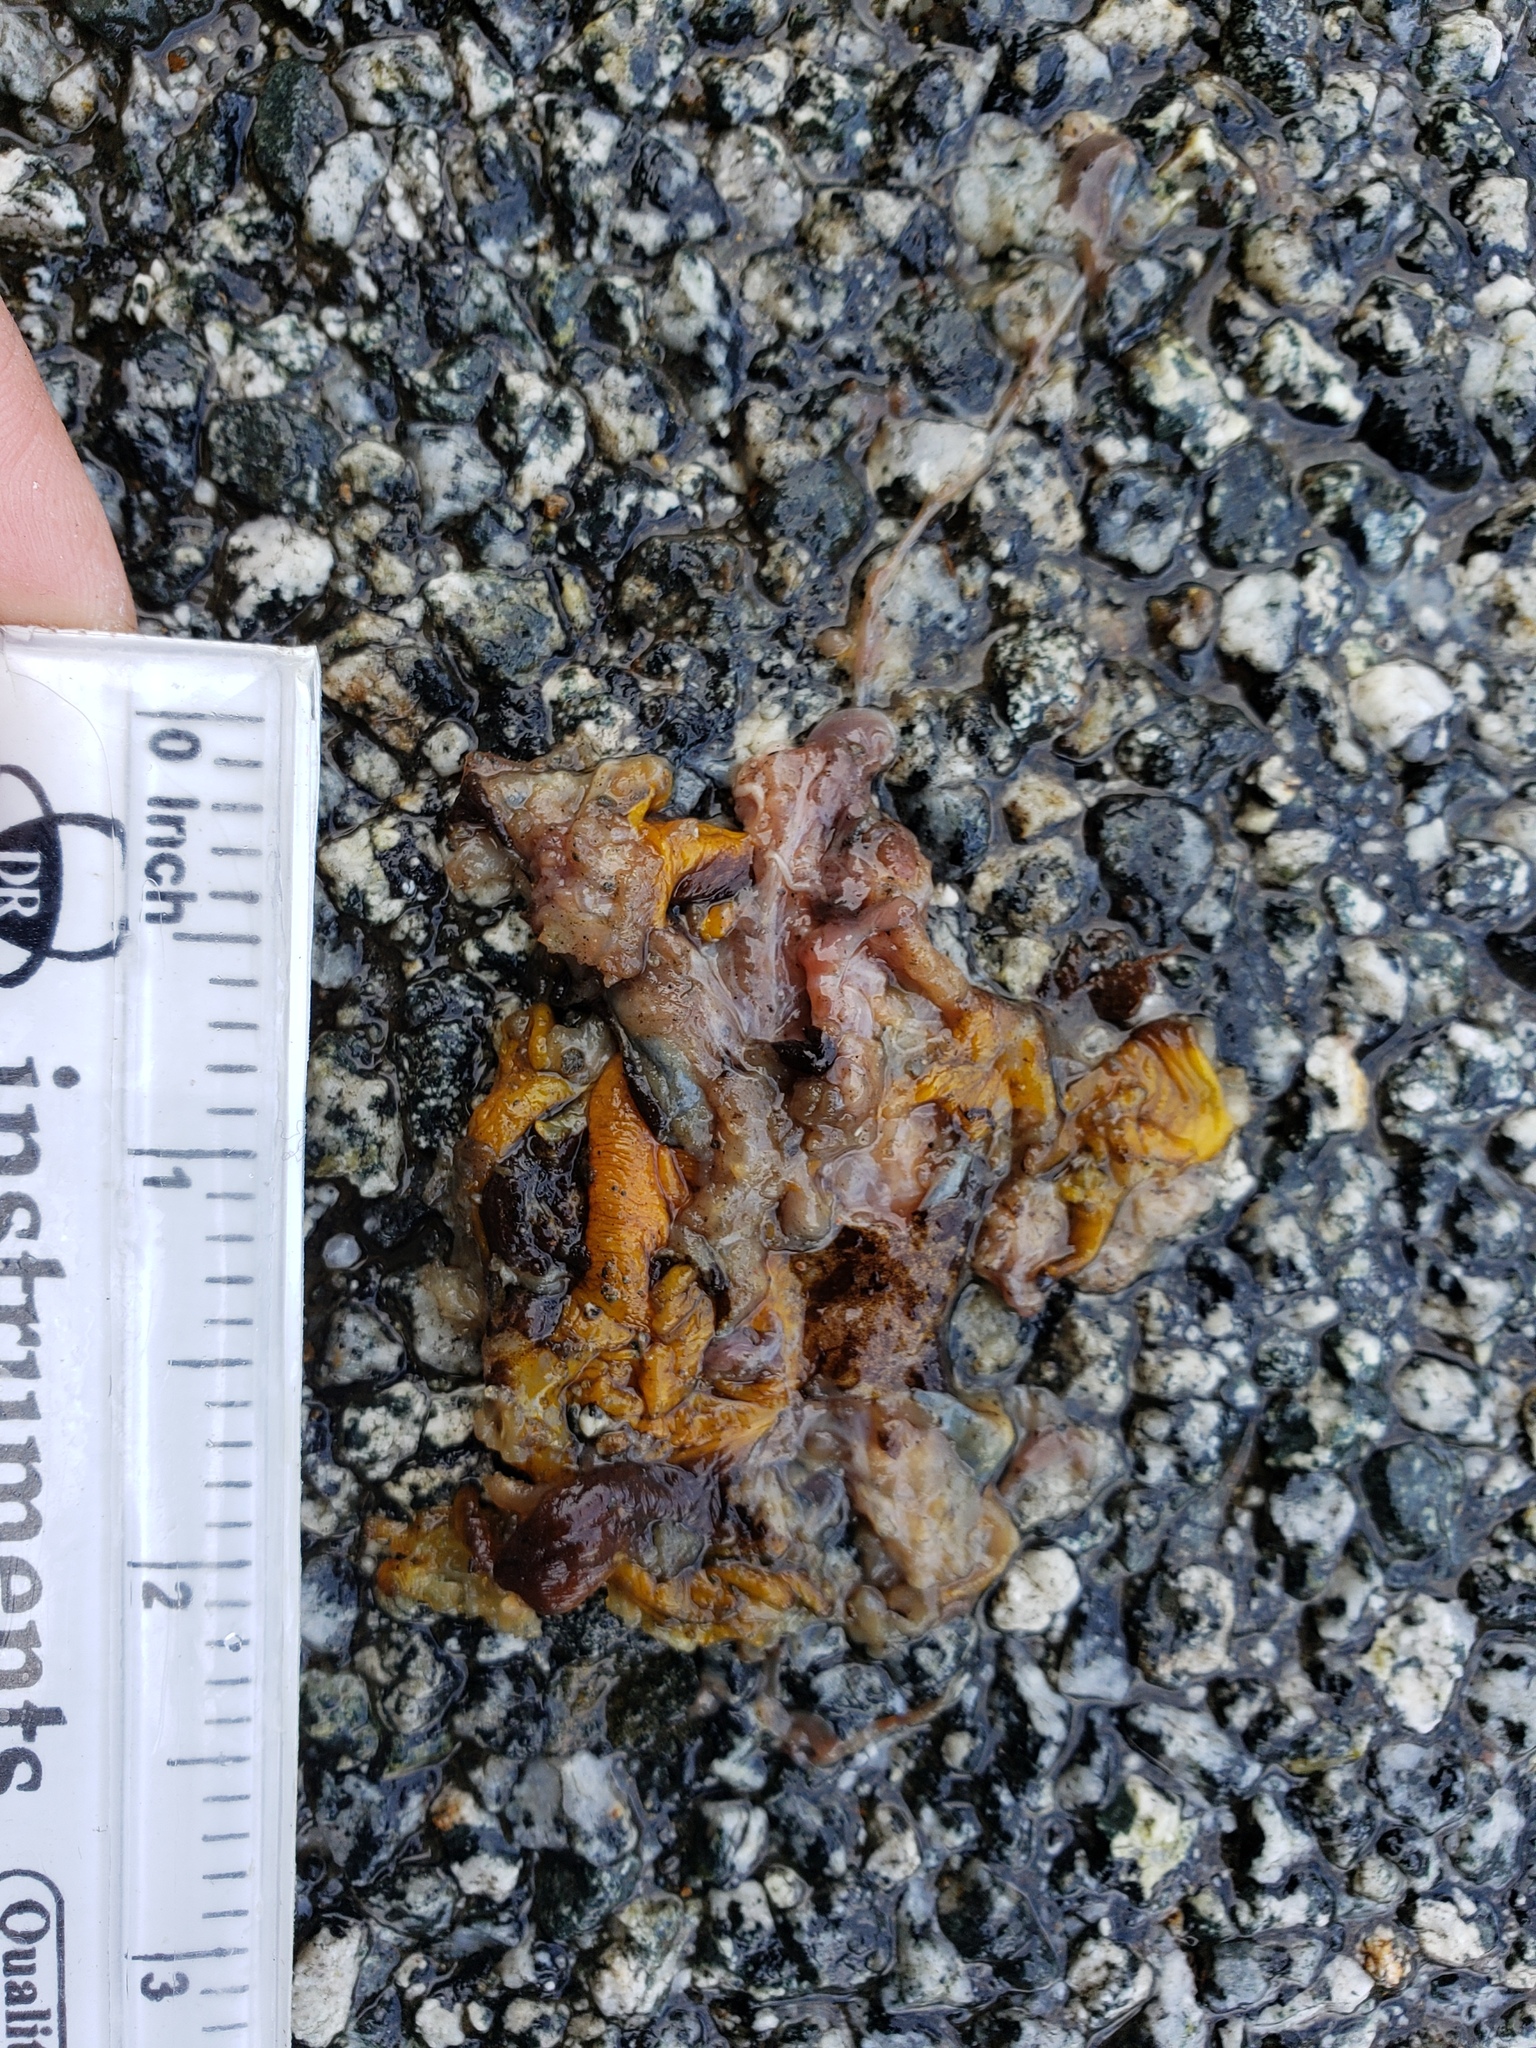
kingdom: Animalia
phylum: Chordata
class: Amphibia
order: Caudata
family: Salamandridae
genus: Taricha
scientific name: Taricha
